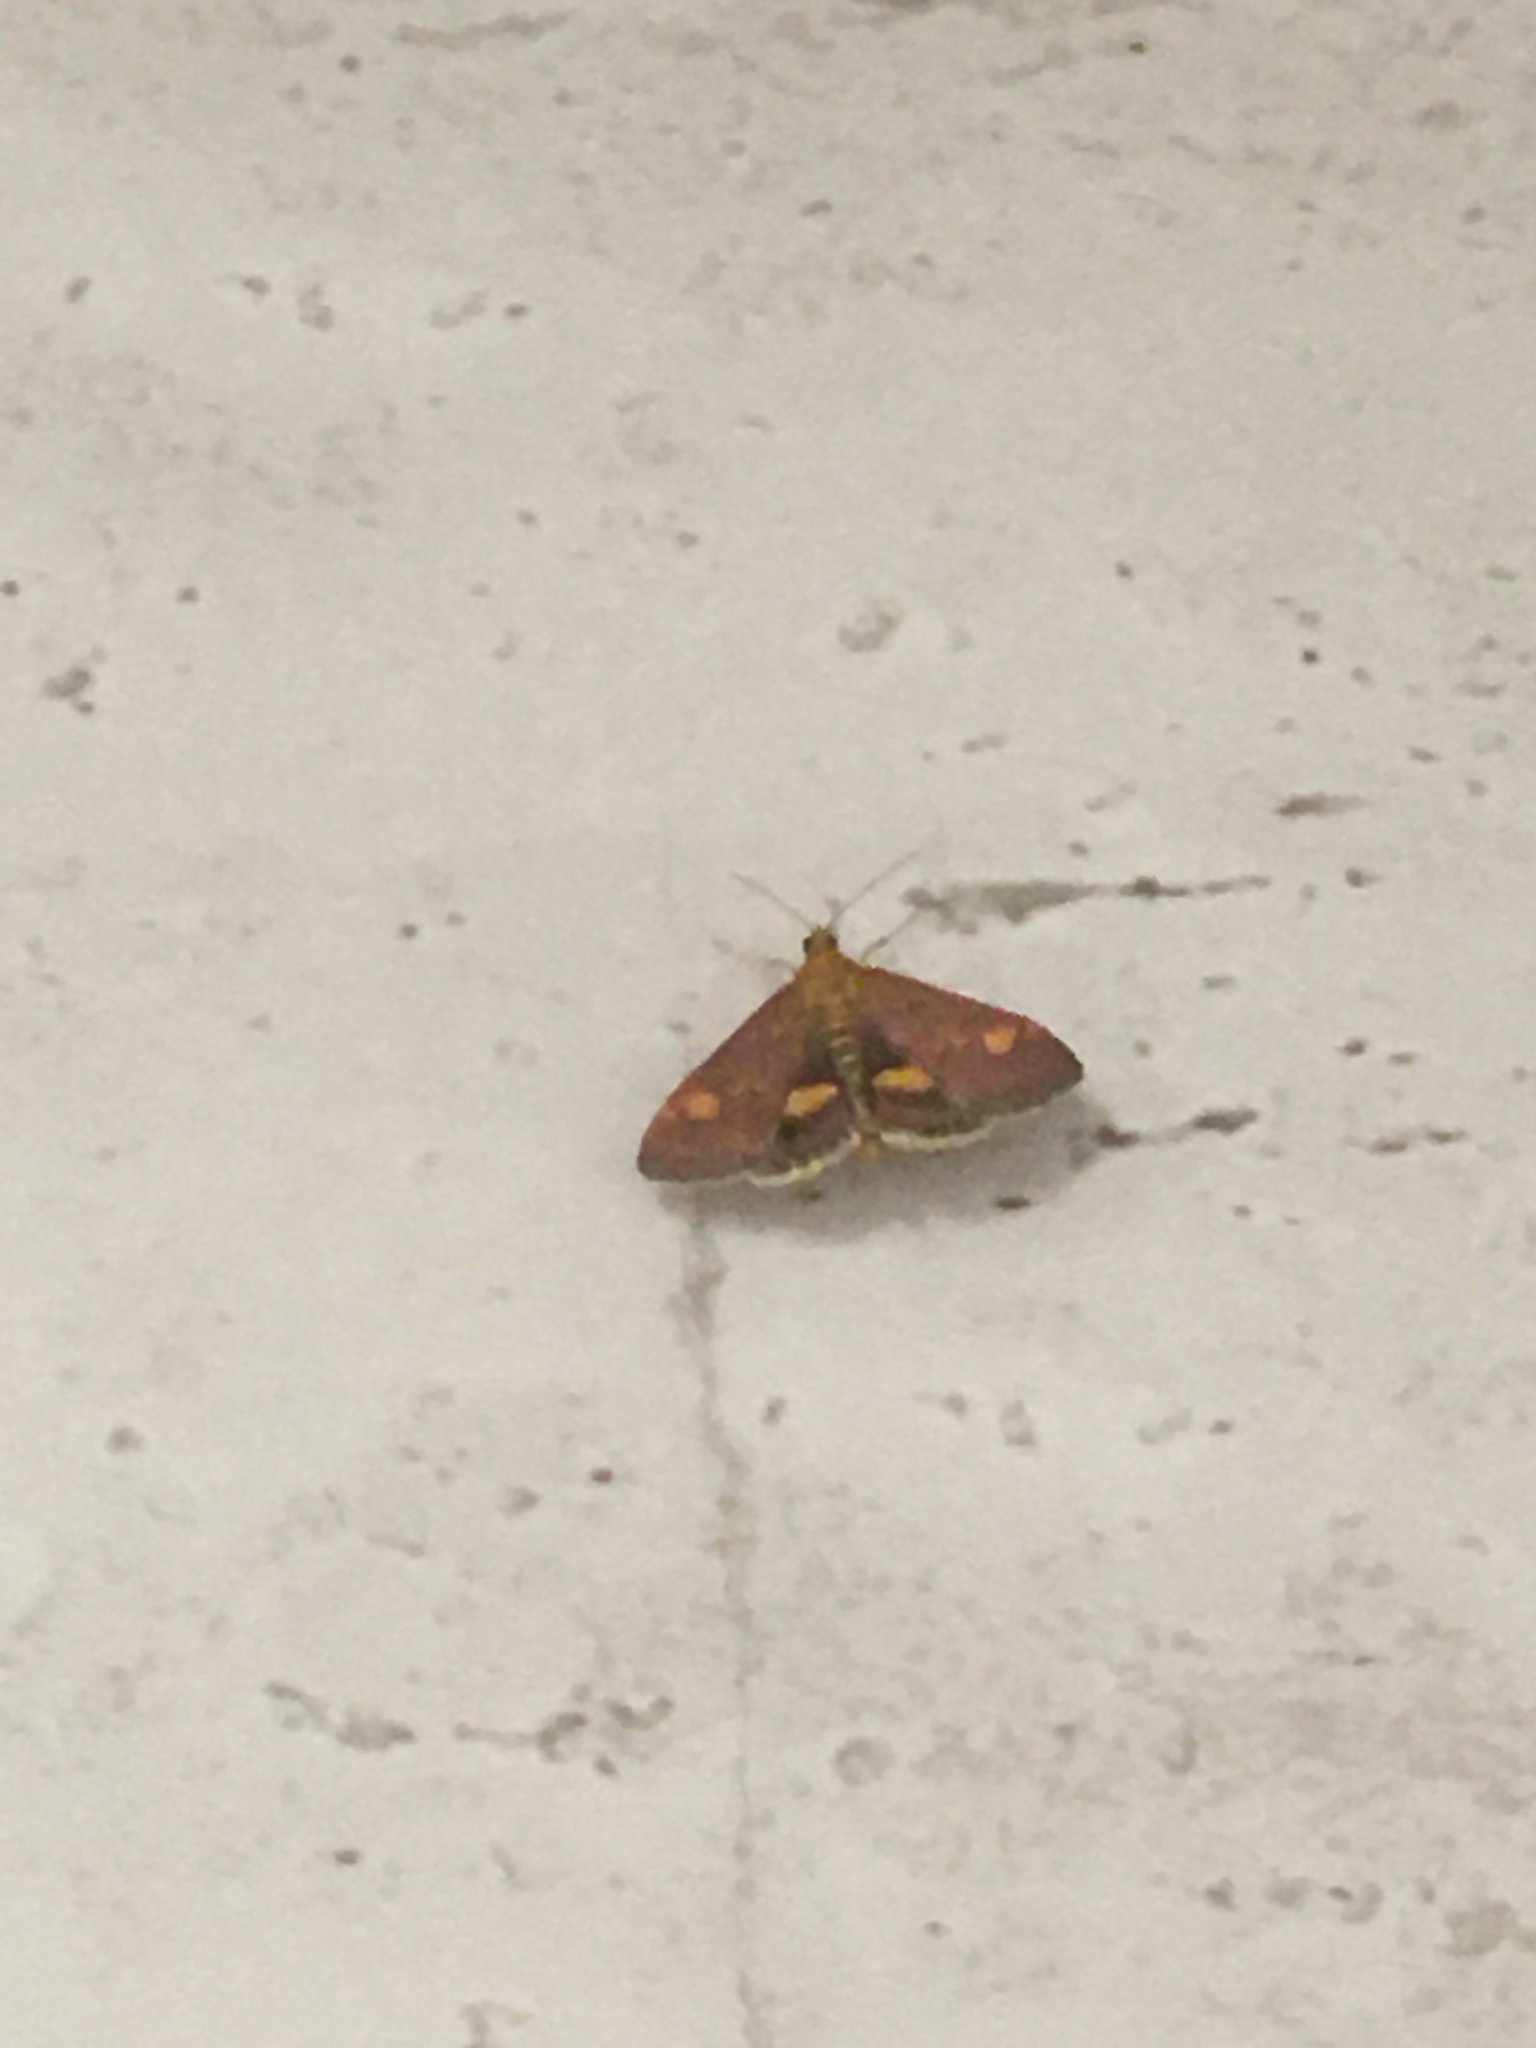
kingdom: Animalia
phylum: Arthropoda
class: Insecta
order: Lepidoptera
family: Crambidae
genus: Pyrausta
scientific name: Pyrausta aurata
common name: Small purple & gold
